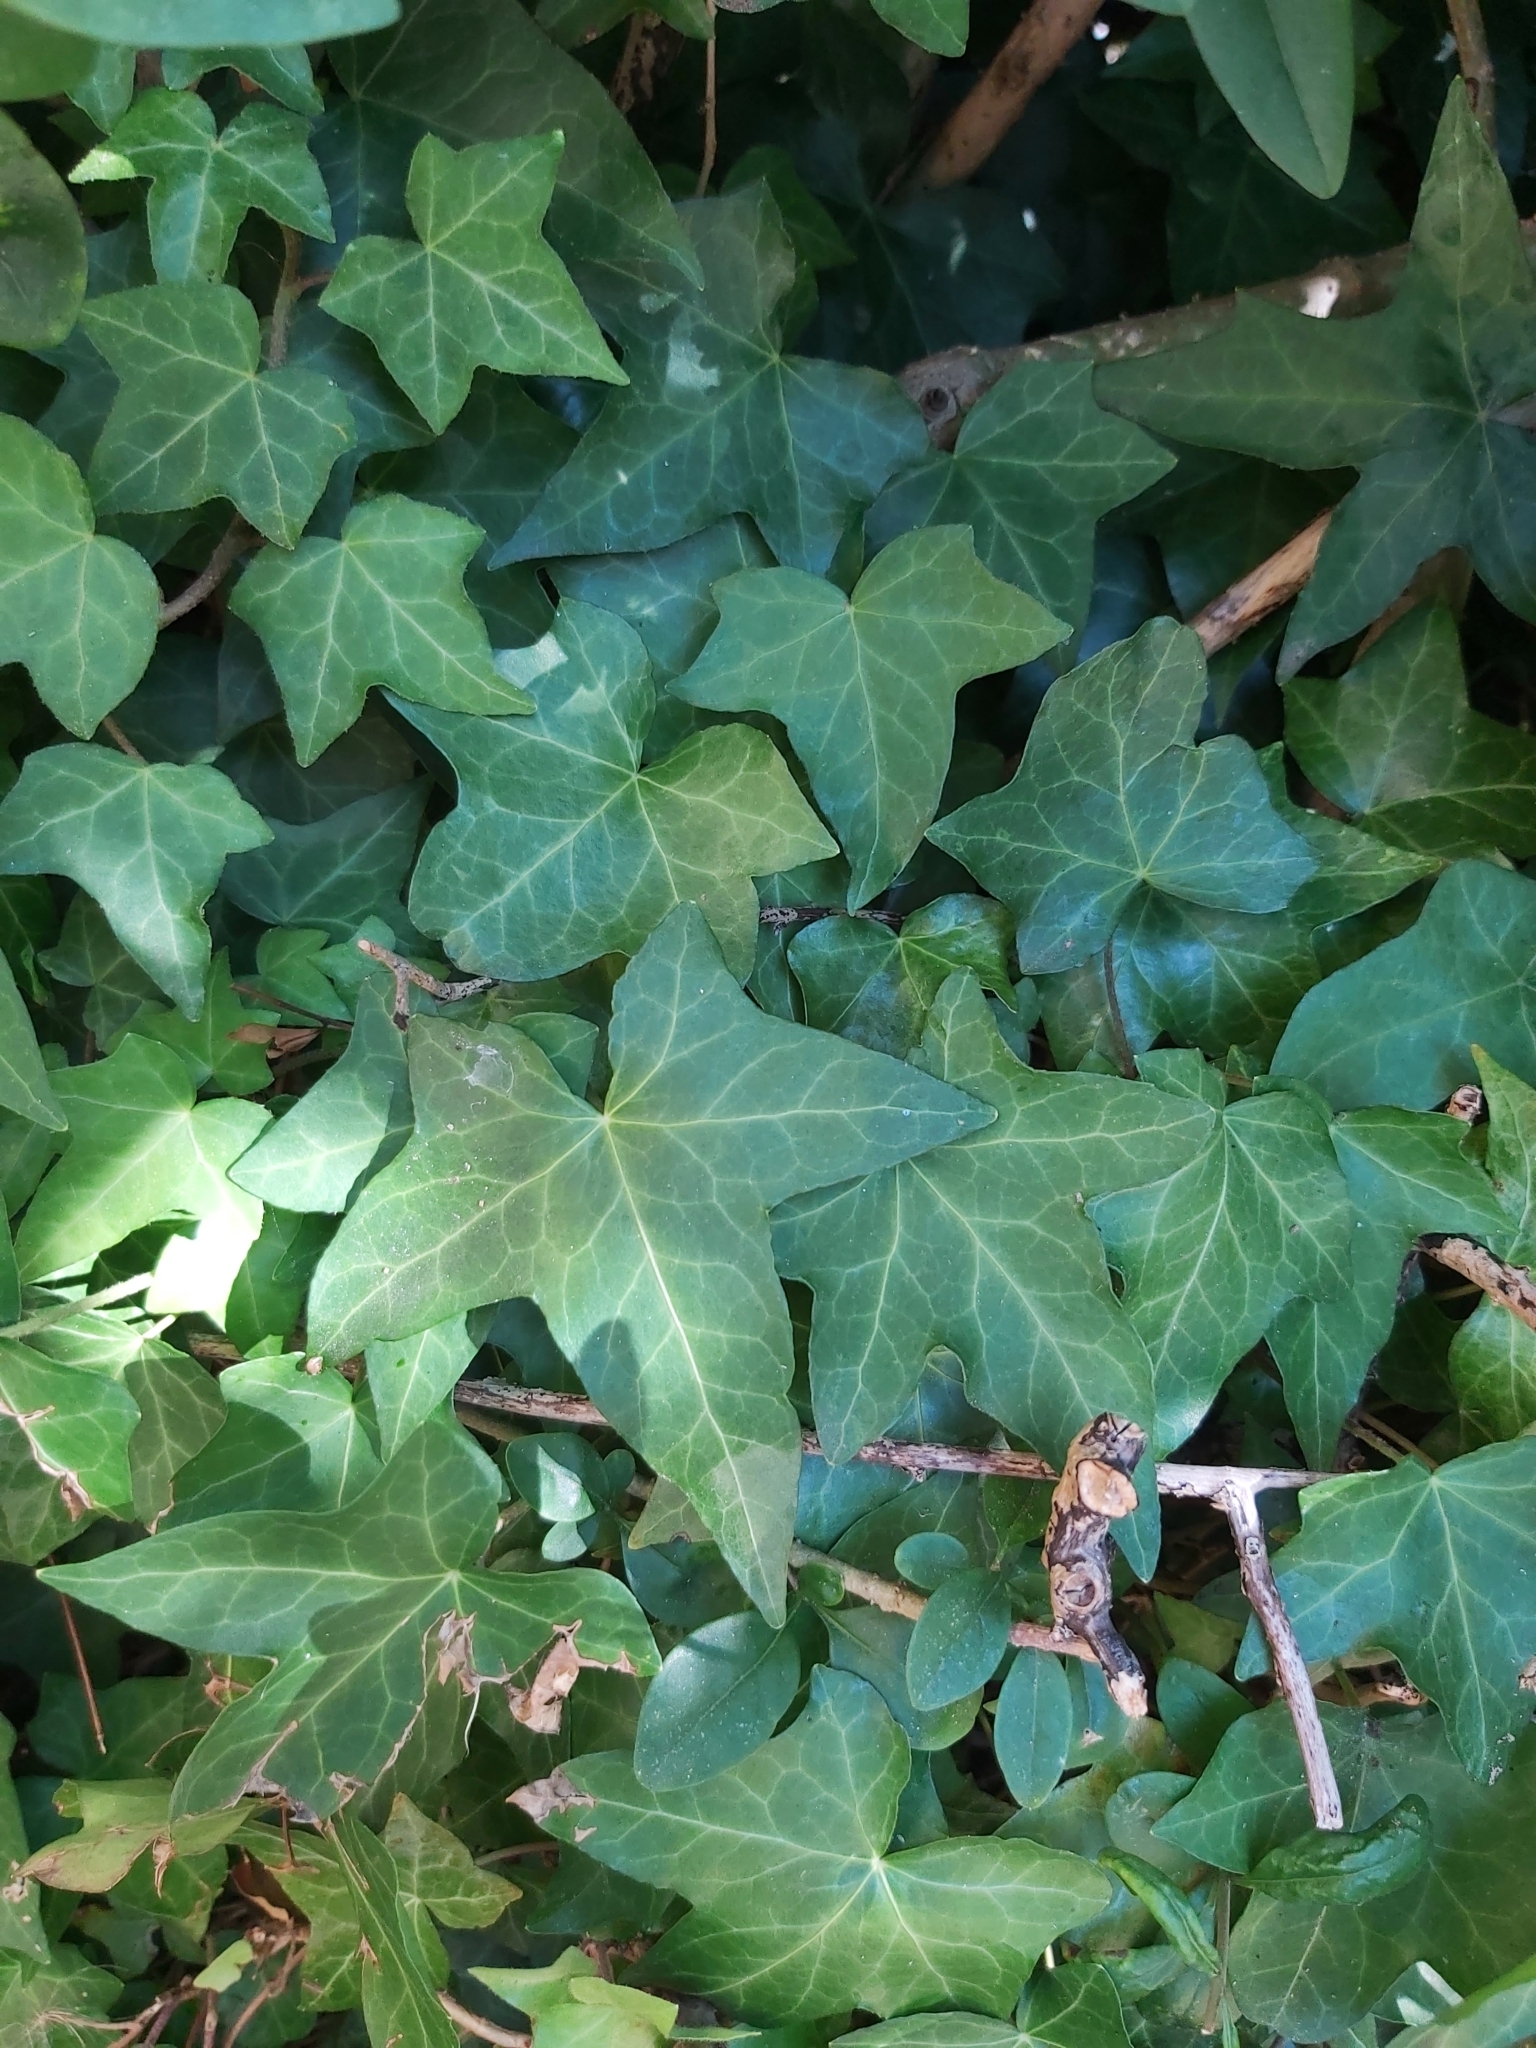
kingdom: Plantae
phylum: Tracheophyta
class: Magnoliopsida
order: Apiales
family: Araliaceae
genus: Hedera
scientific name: Hedera helix
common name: Ivy
